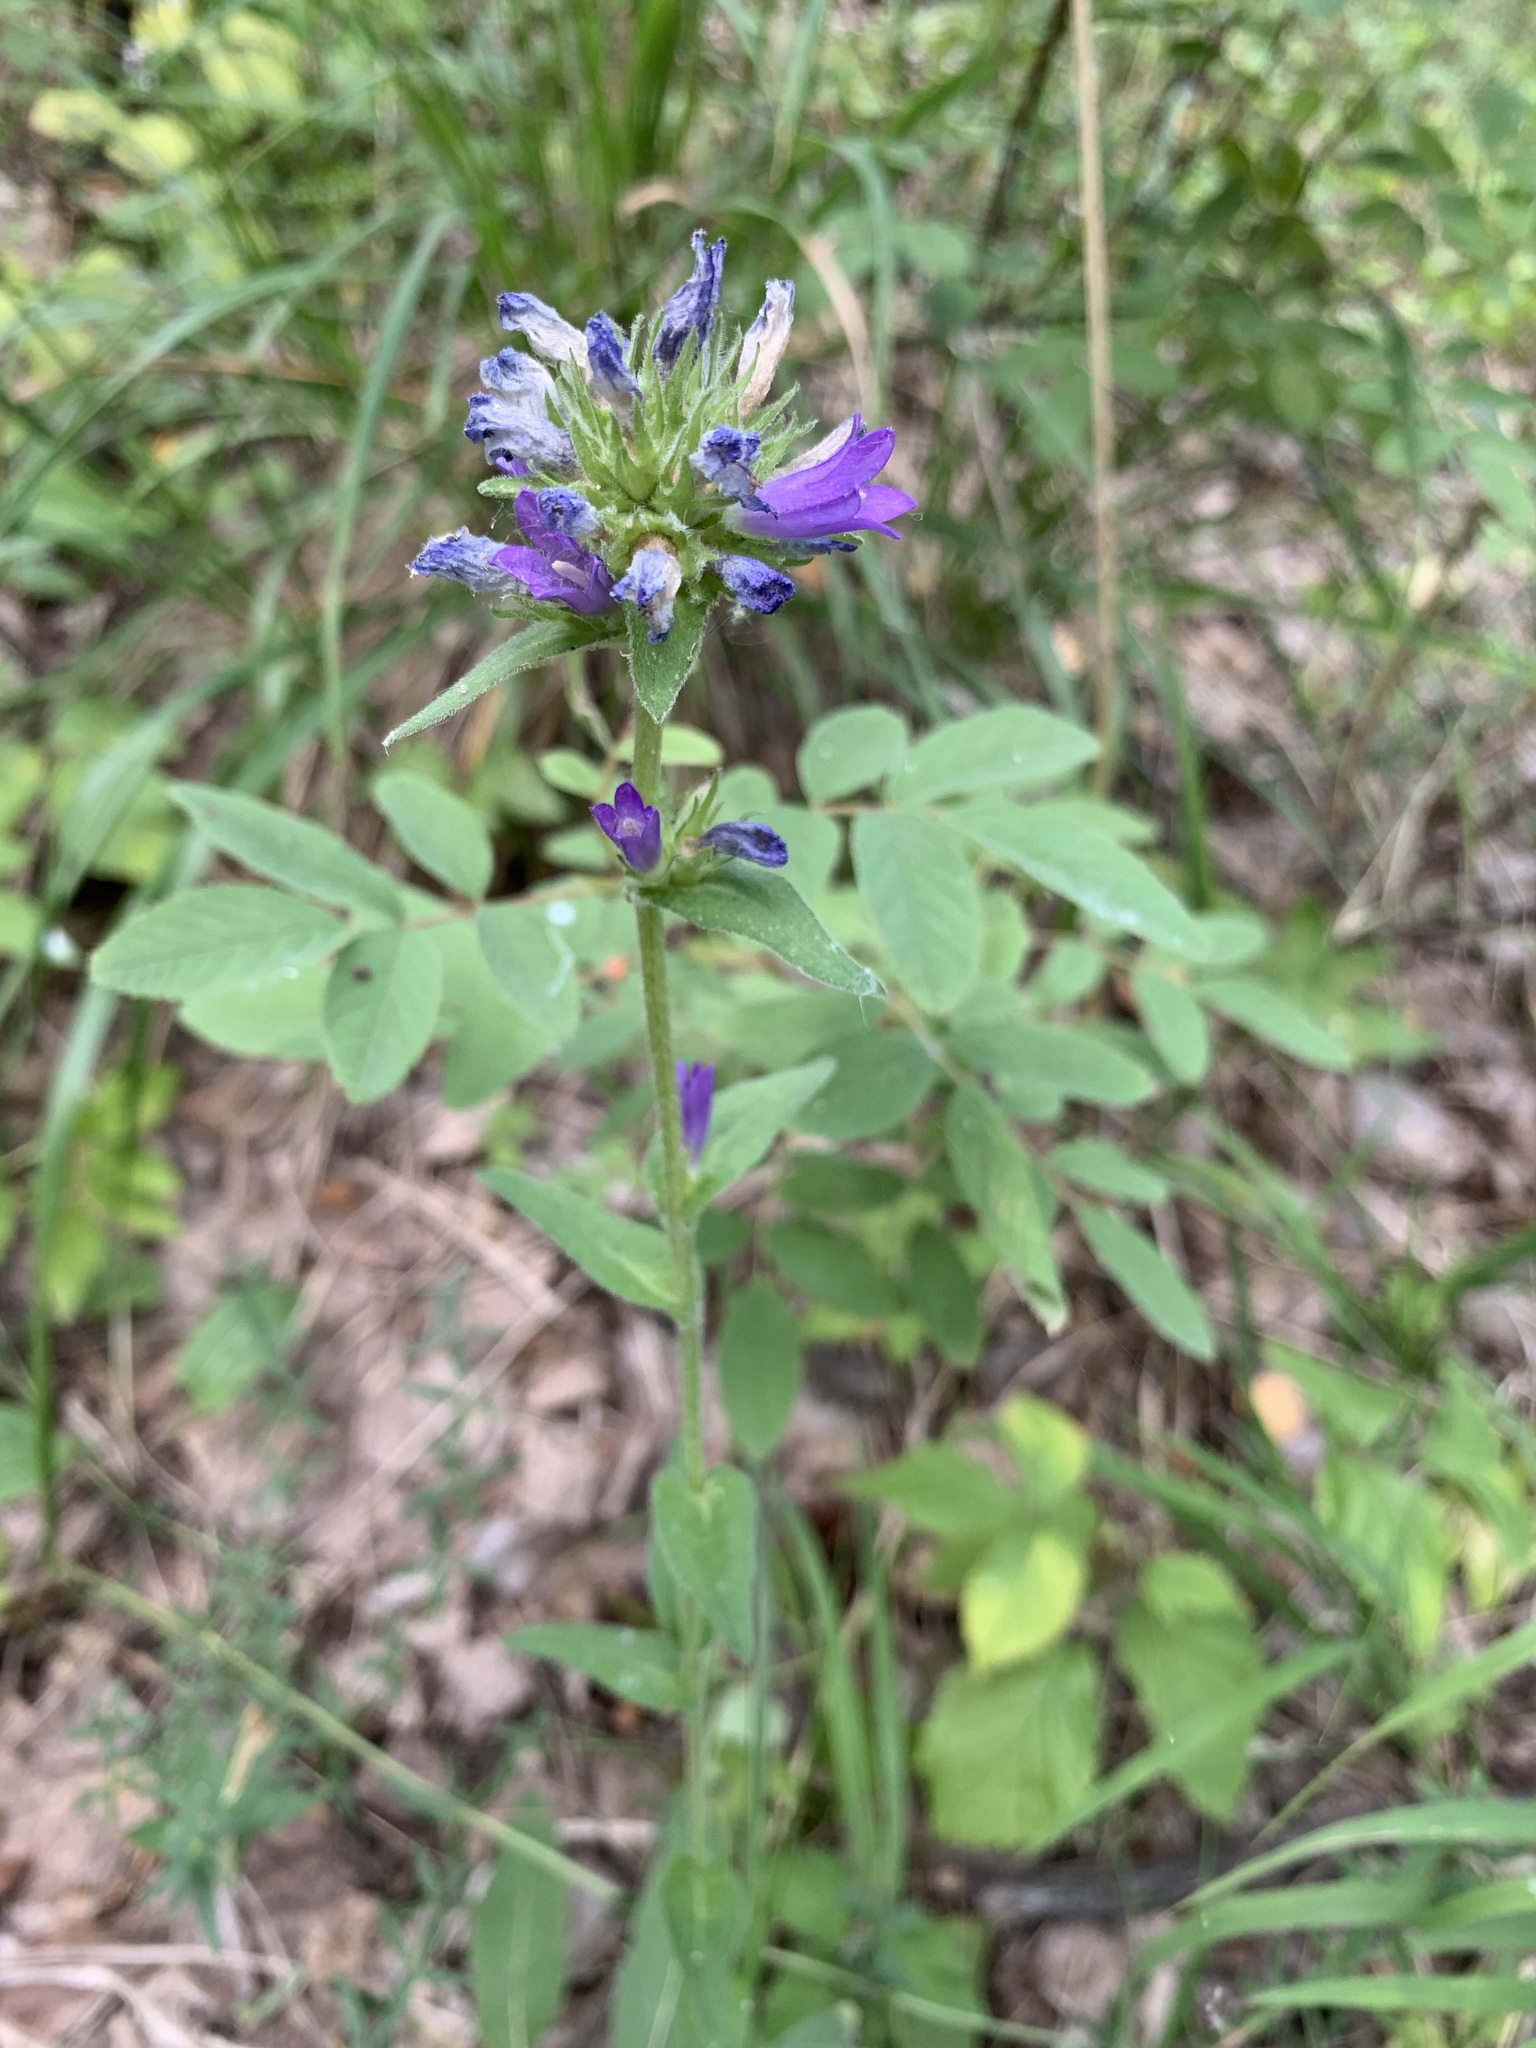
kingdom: Plantae
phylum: Tracheophyta
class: Magnoliopsida
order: Asterales
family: Campanulaceae
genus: Campanula
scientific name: Campanula glomerata
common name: Clustered bellflower
